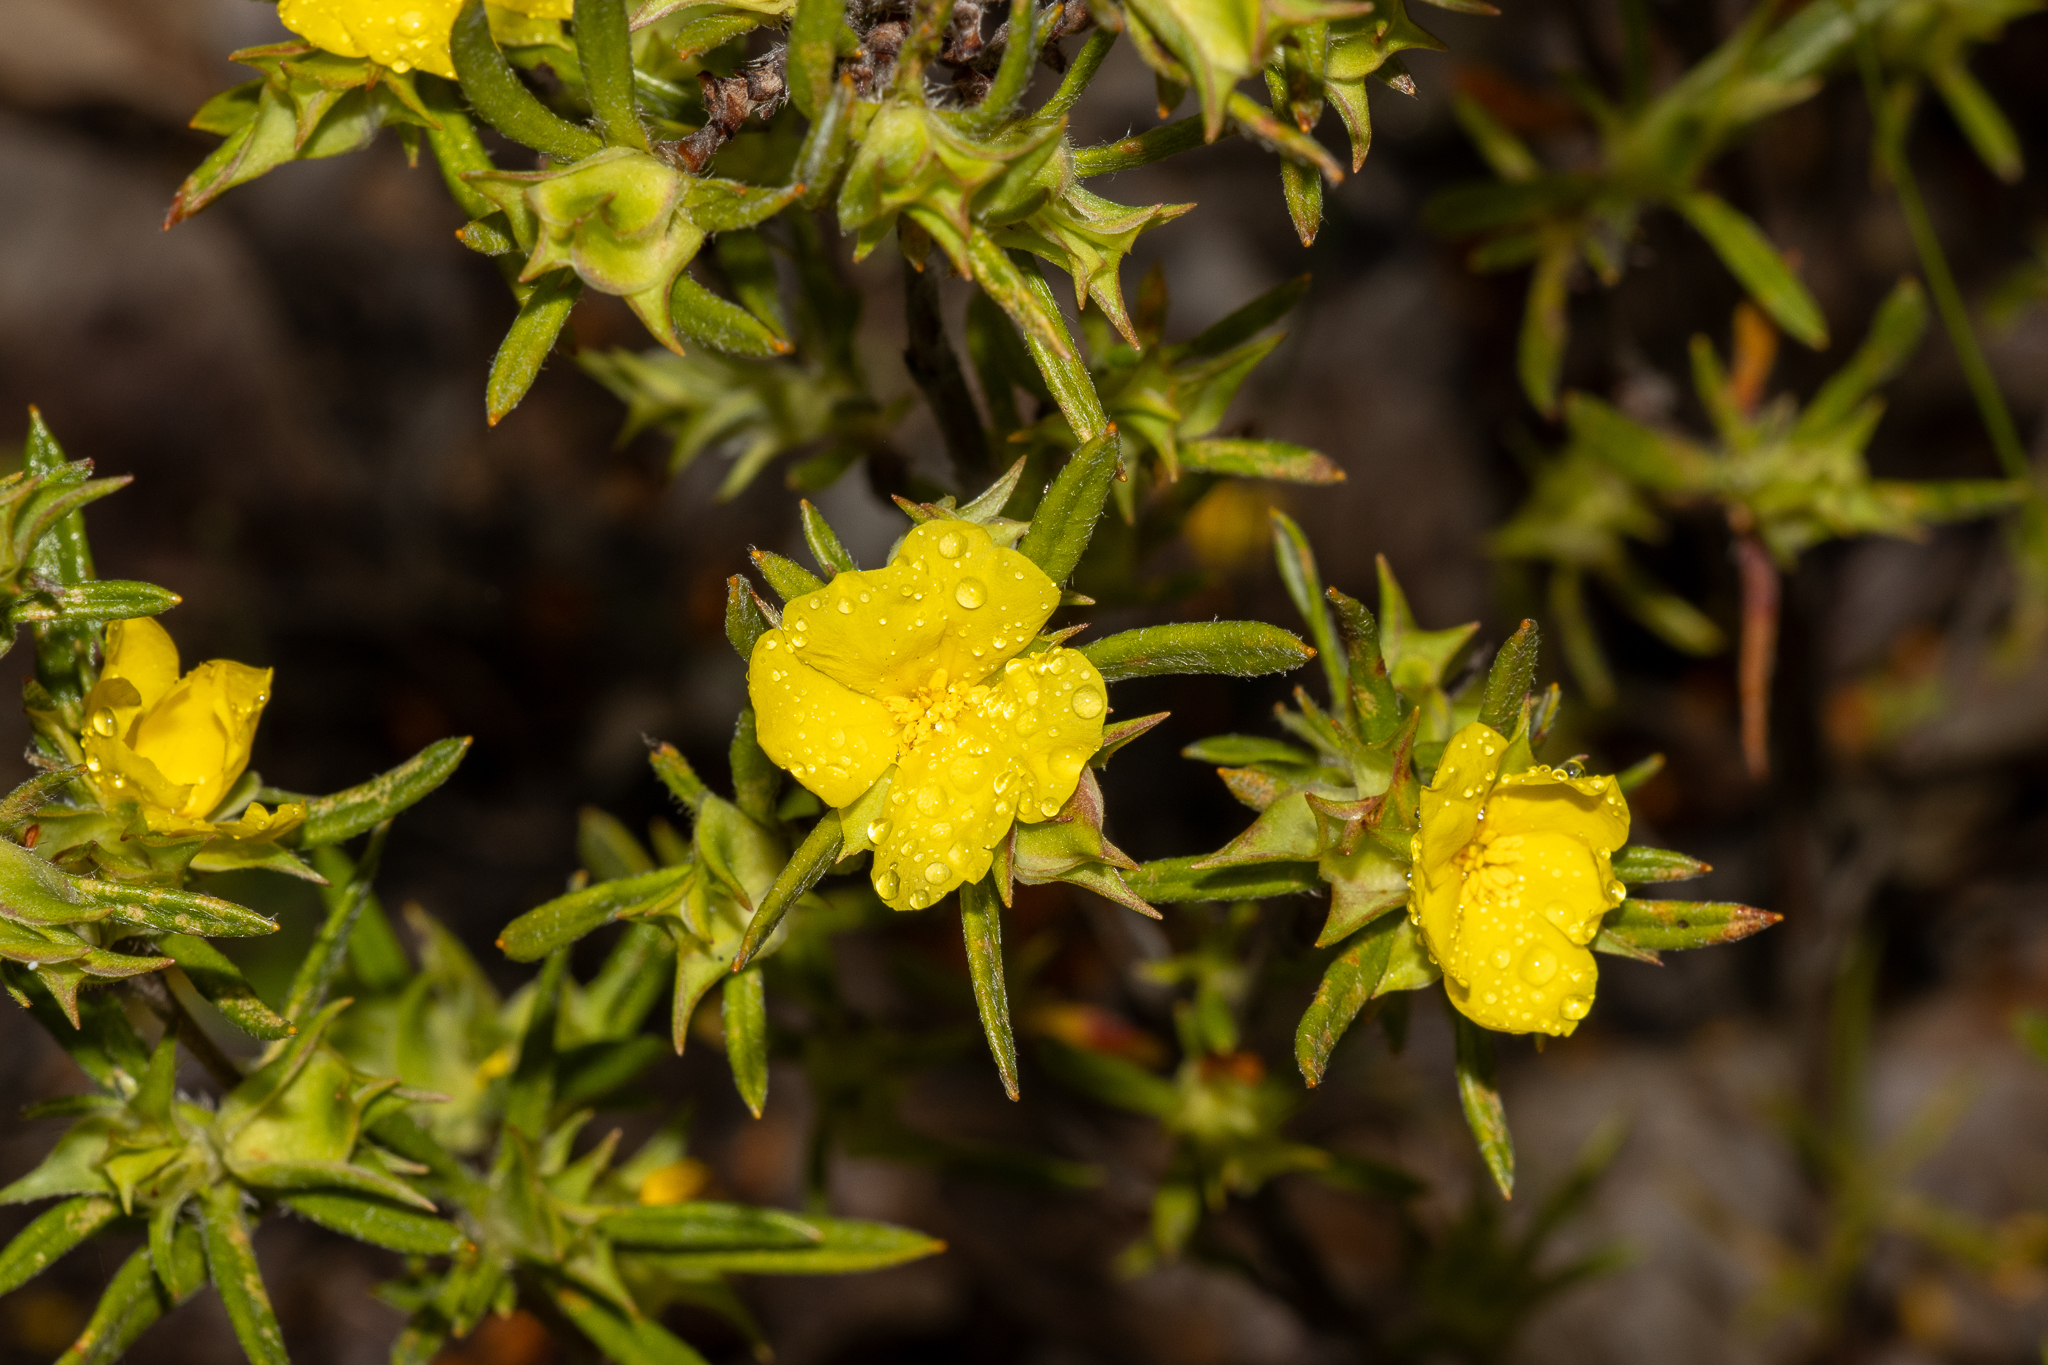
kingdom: Plantae
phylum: Tracheophyta
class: Magnoliopsida
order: Dilleniales
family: Dilleniaceae
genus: Hibbertia
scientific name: Hibbertia squarrosa
